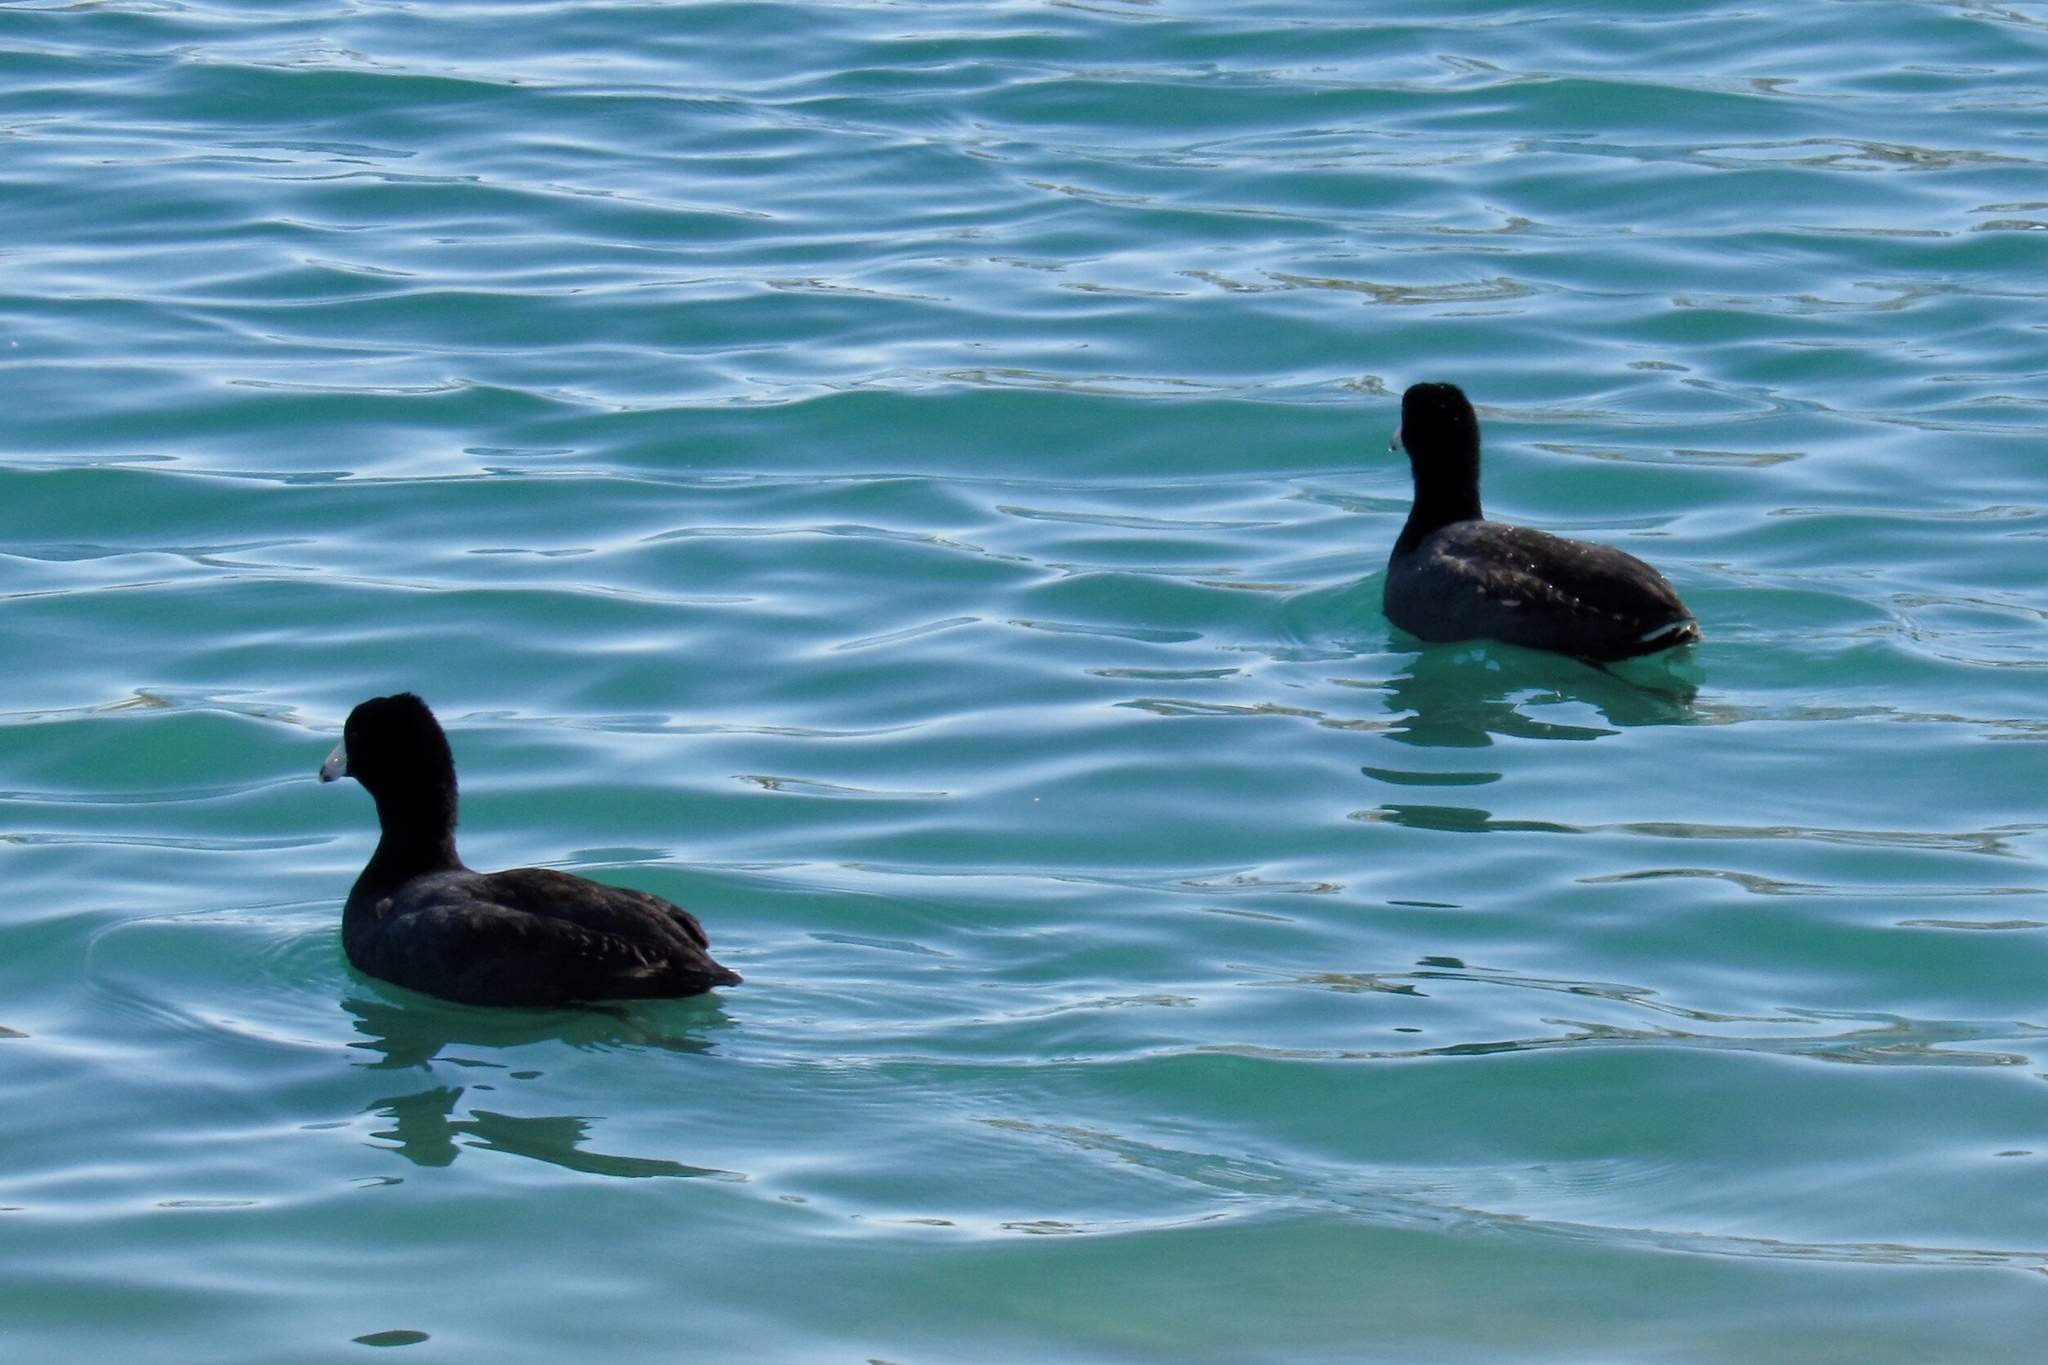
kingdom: Animalia
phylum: Chordata
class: Aves
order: Gruiformes
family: Rallidae
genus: Fulica
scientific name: Fulica americana
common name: American coot
